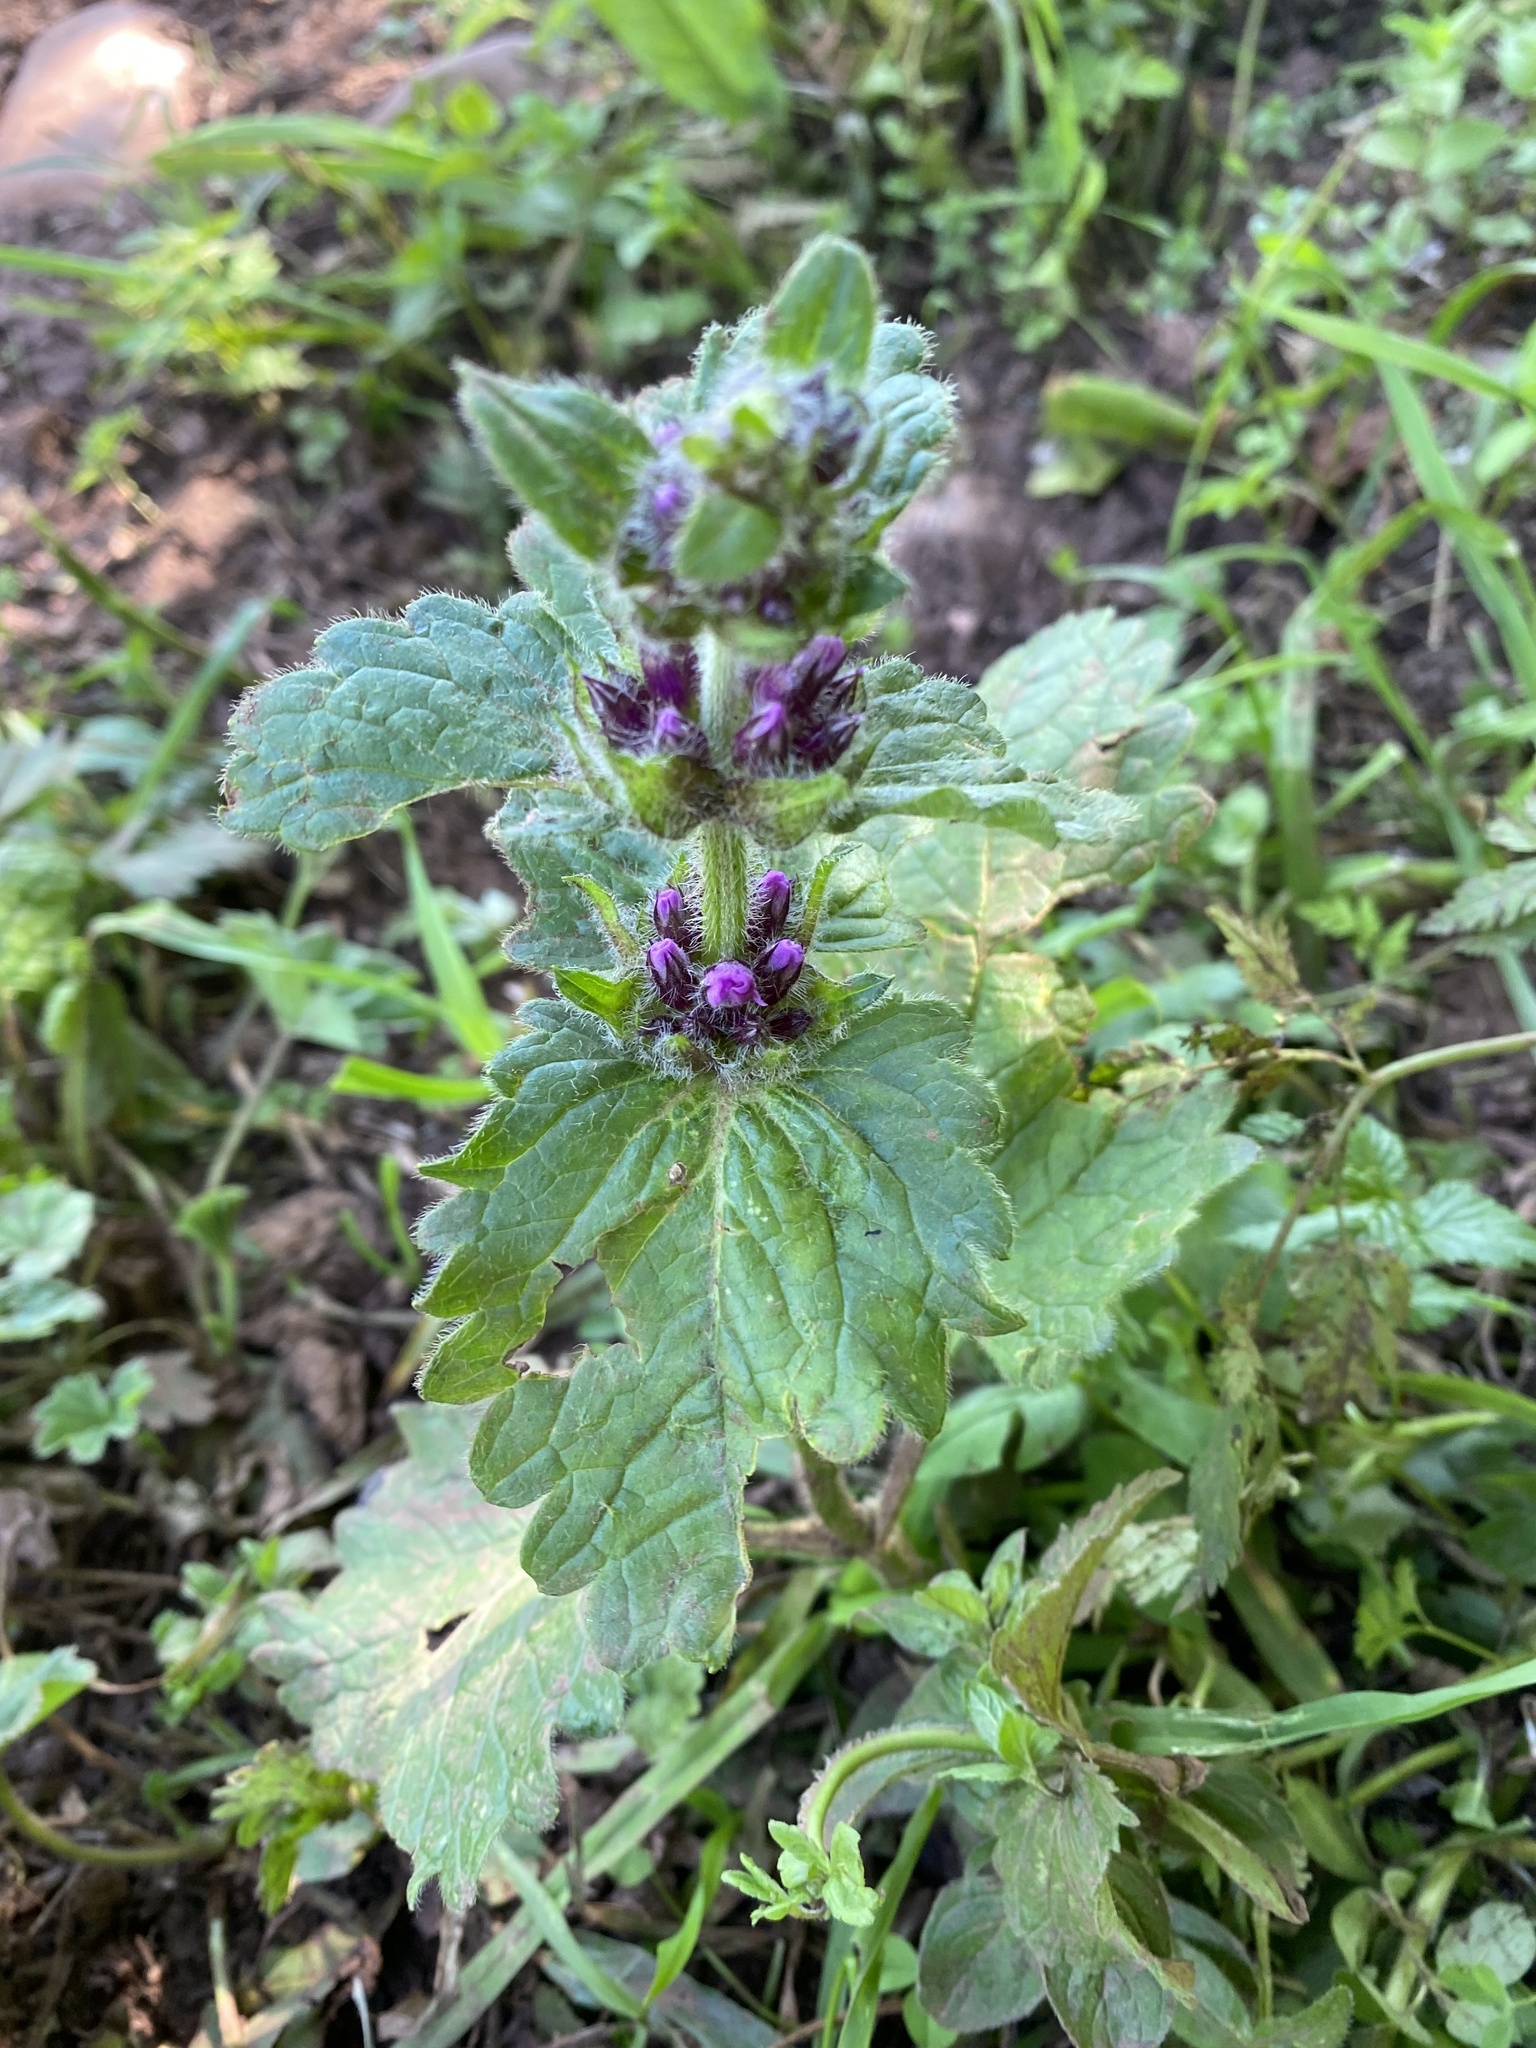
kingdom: Plantae
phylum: Tracheophyta
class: Magnoliopsida
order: Lamiales
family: Lamiaceae
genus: Betonica
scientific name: Betonica macrantha
